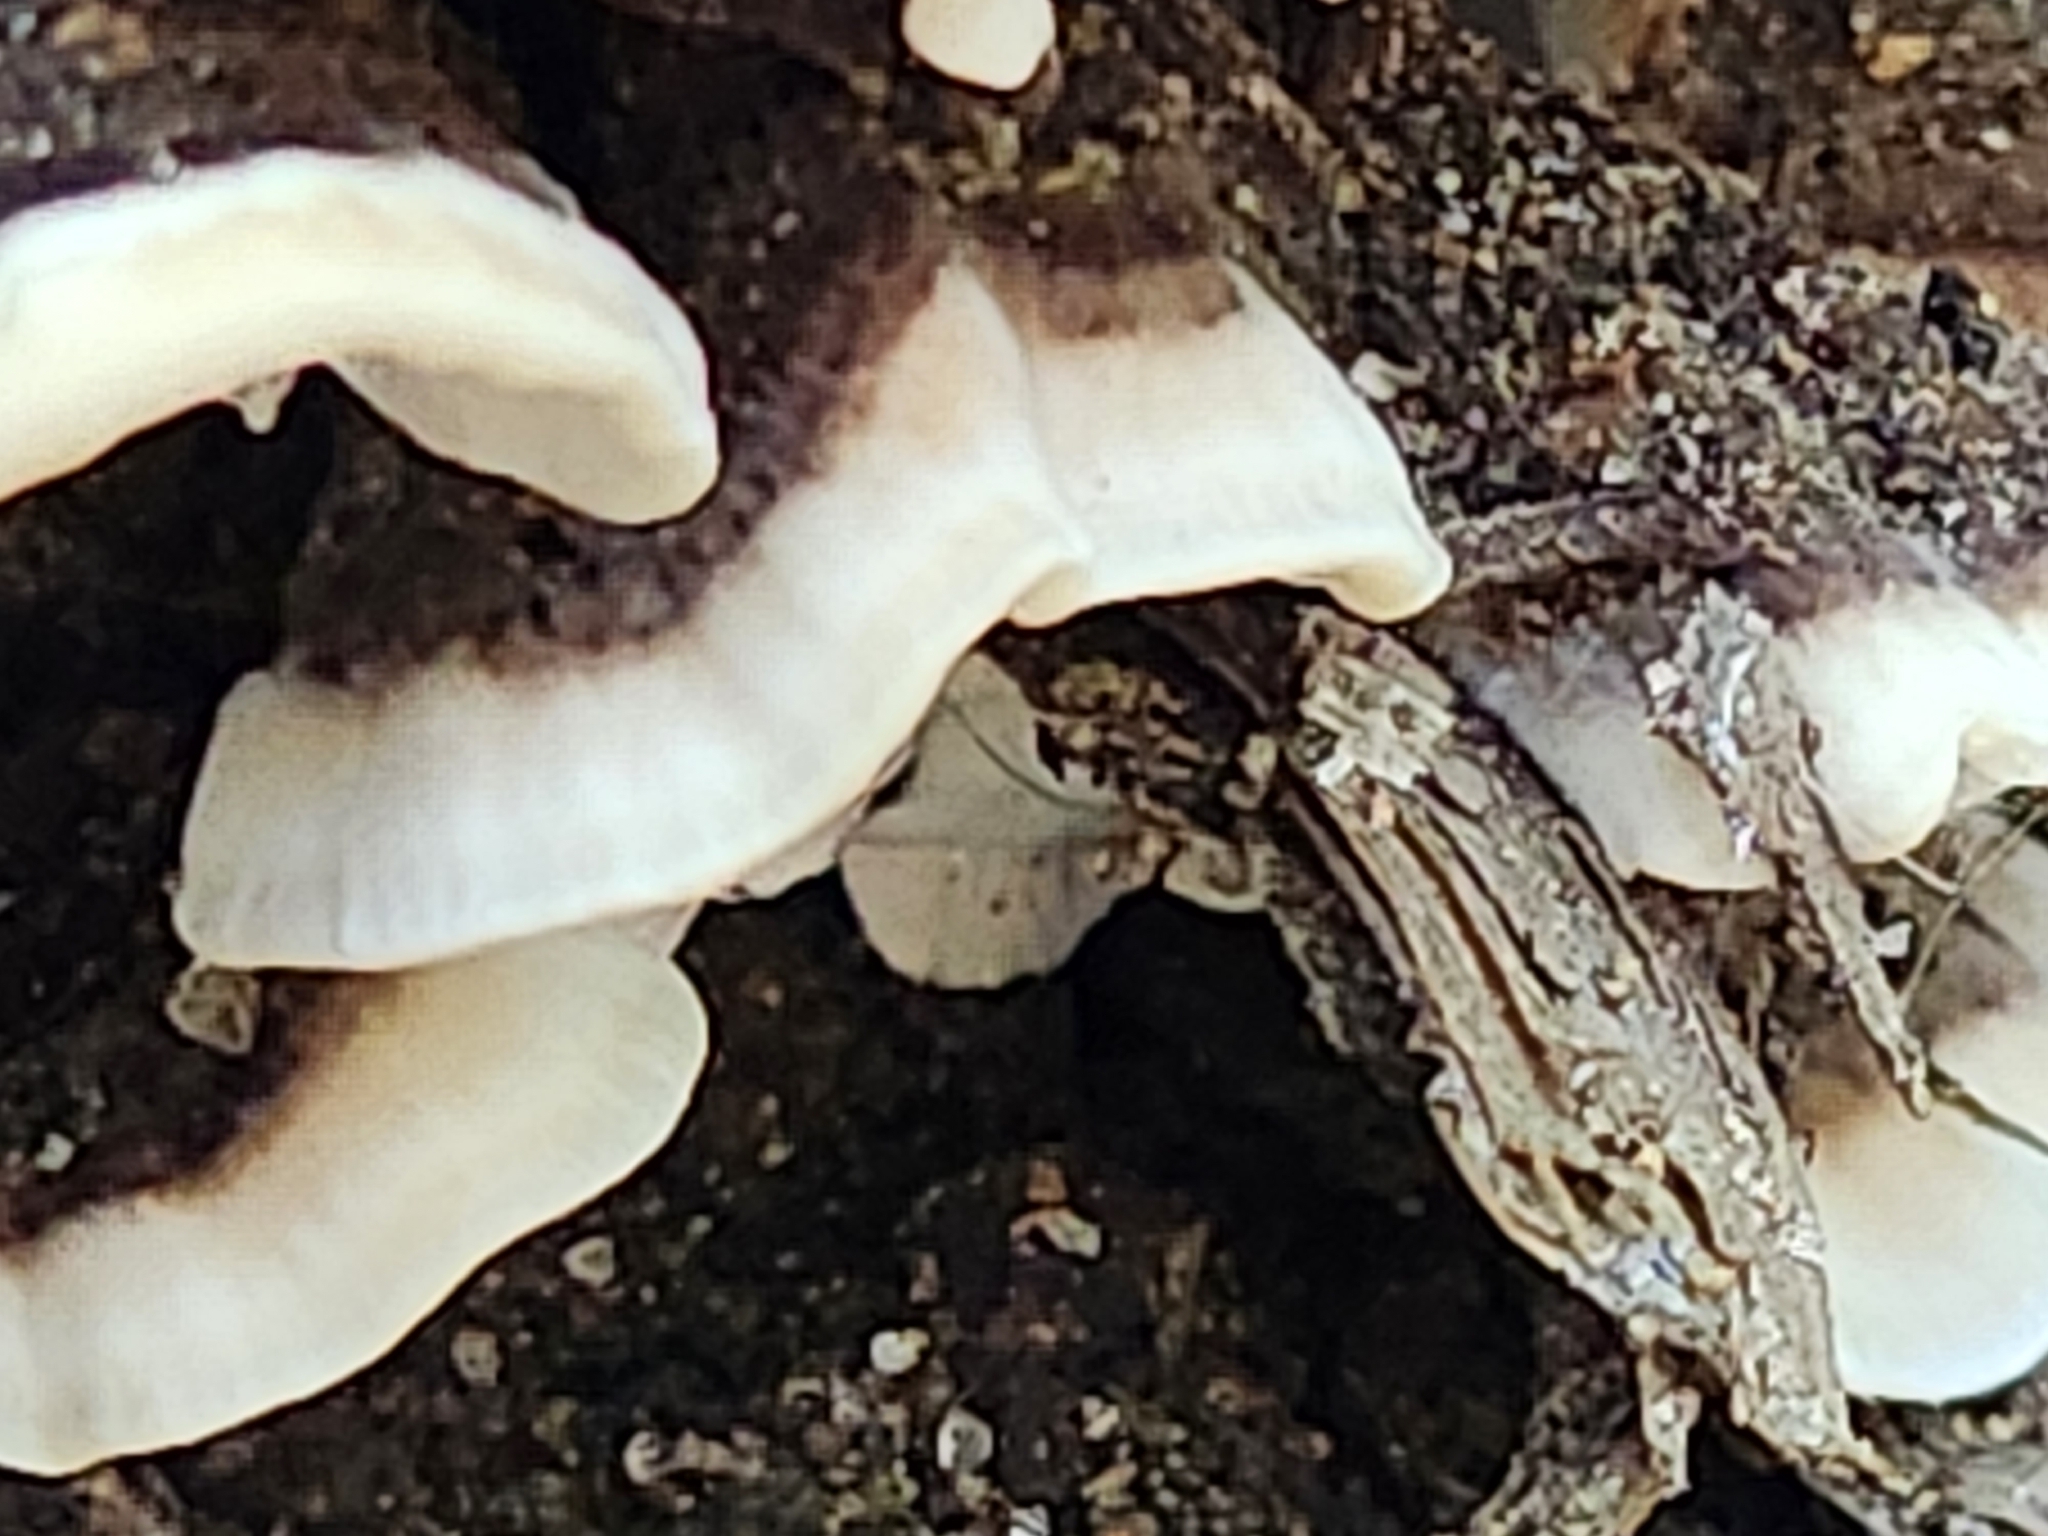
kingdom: Fungi
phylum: Basidiomycota
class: Agaricomycetes
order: Polyporales
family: Polyporaceae
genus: Trametes
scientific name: Trametes versicolor
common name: Turkeytail
